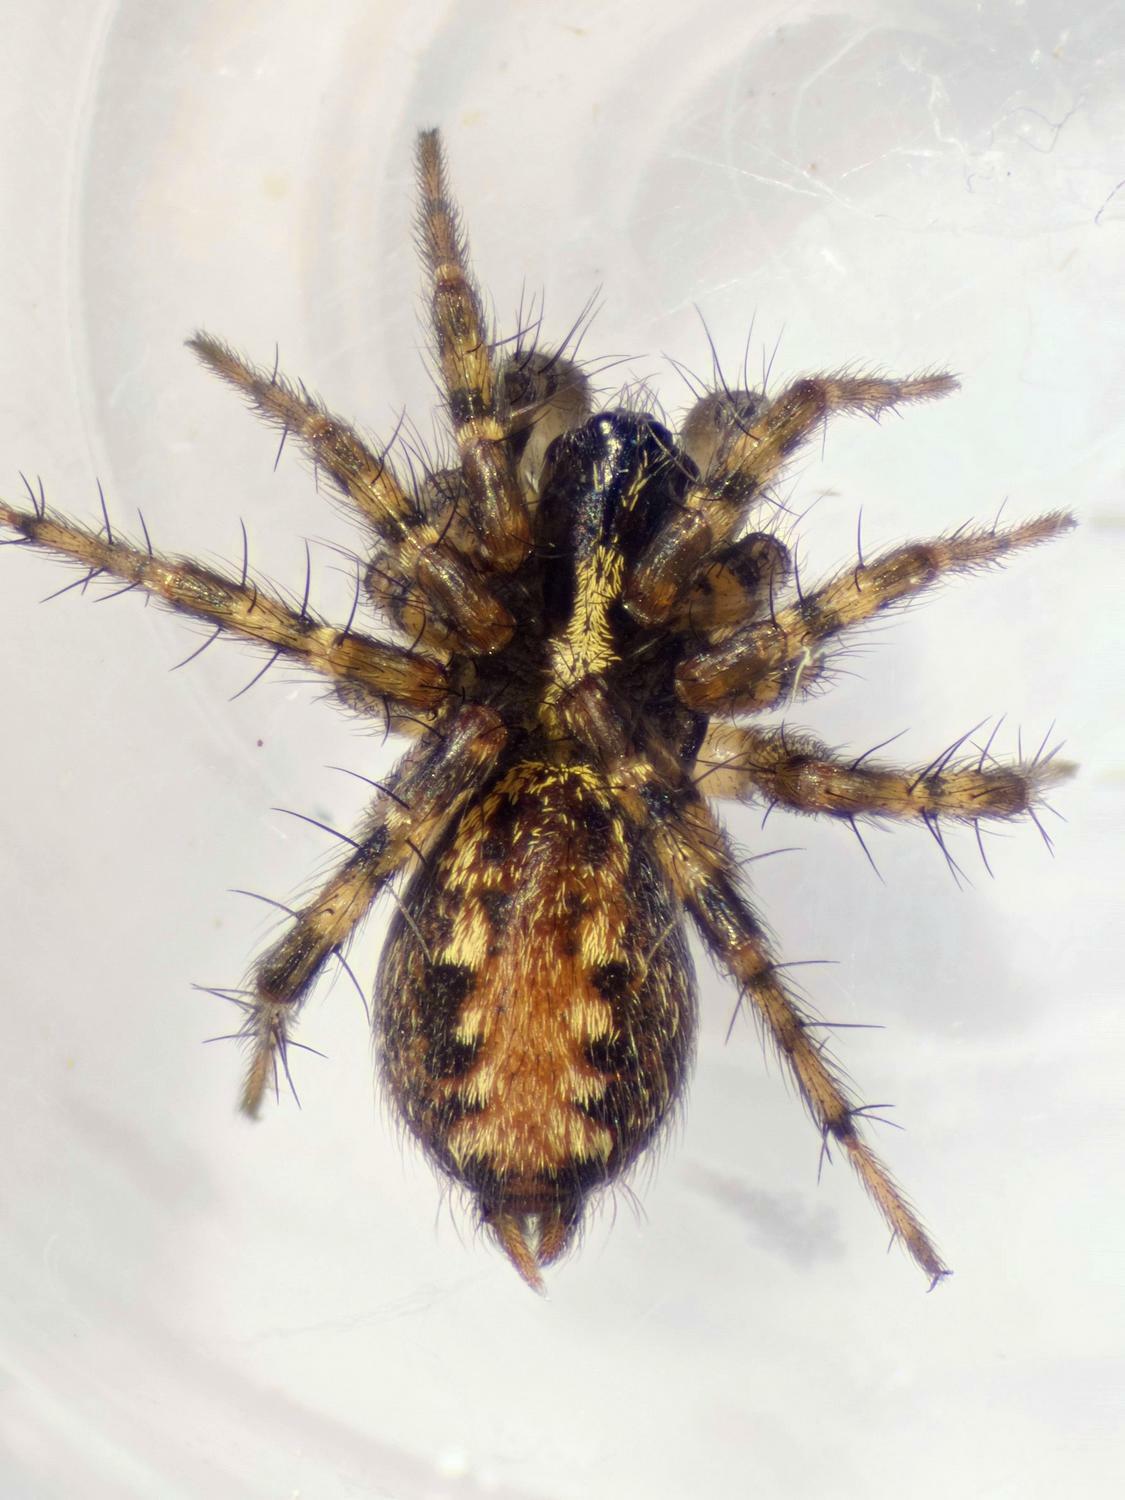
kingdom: Animalia
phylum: Arthropoda
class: Arachnida
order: Araneae
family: Agelenidae
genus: Textrix
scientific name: Textrix denticulata
